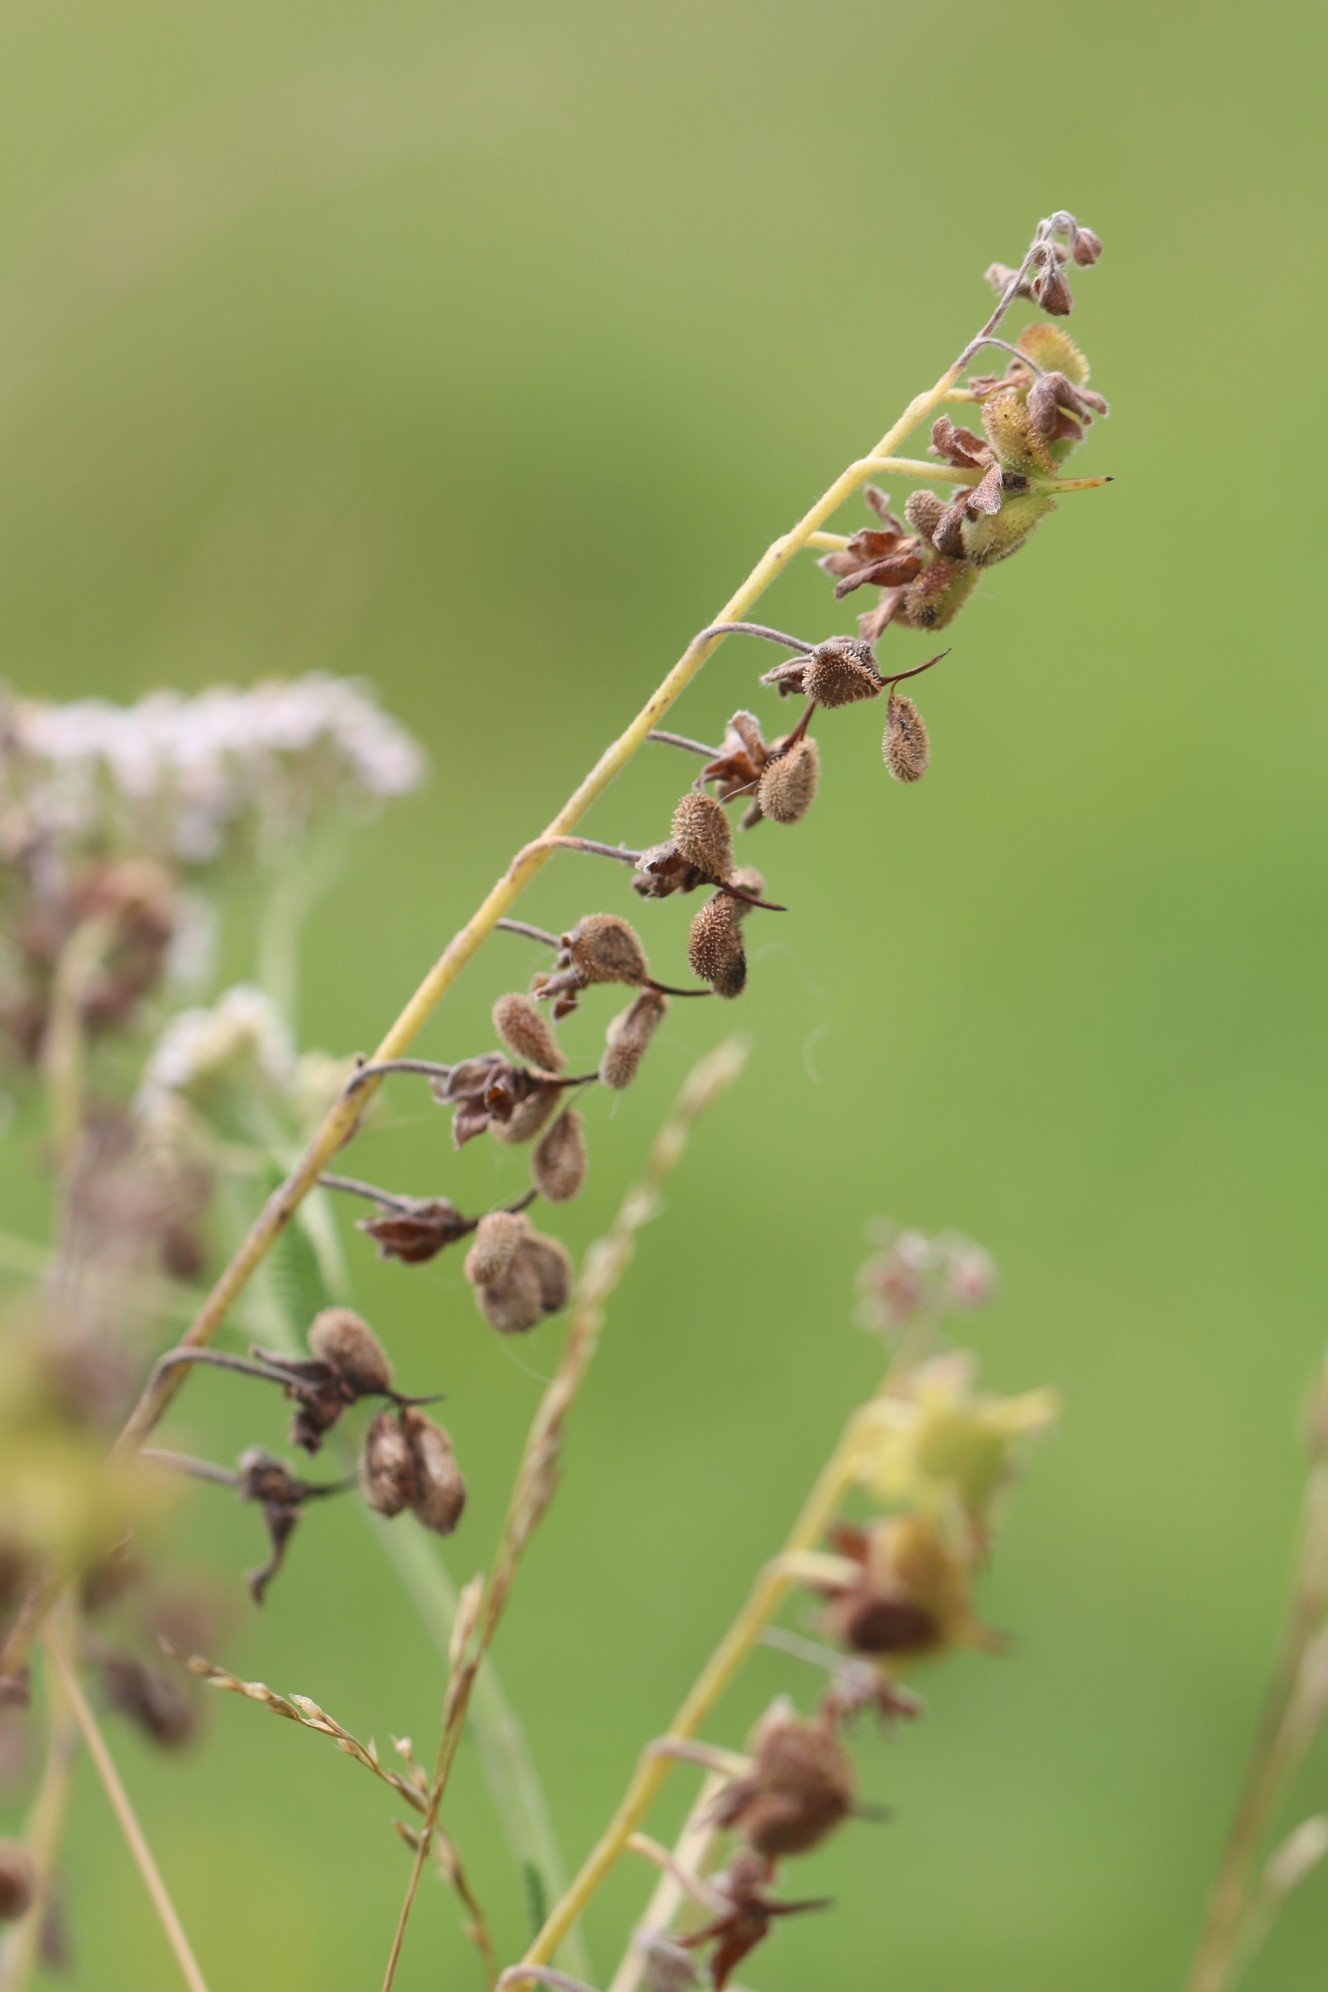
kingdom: Plantae
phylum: Tracheophyta
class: Magnoliopsida
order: Boraginales
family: Boraginaceae
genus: Cynoglossum
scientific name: Cynoglossum officinale
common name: Hound's-tongue
